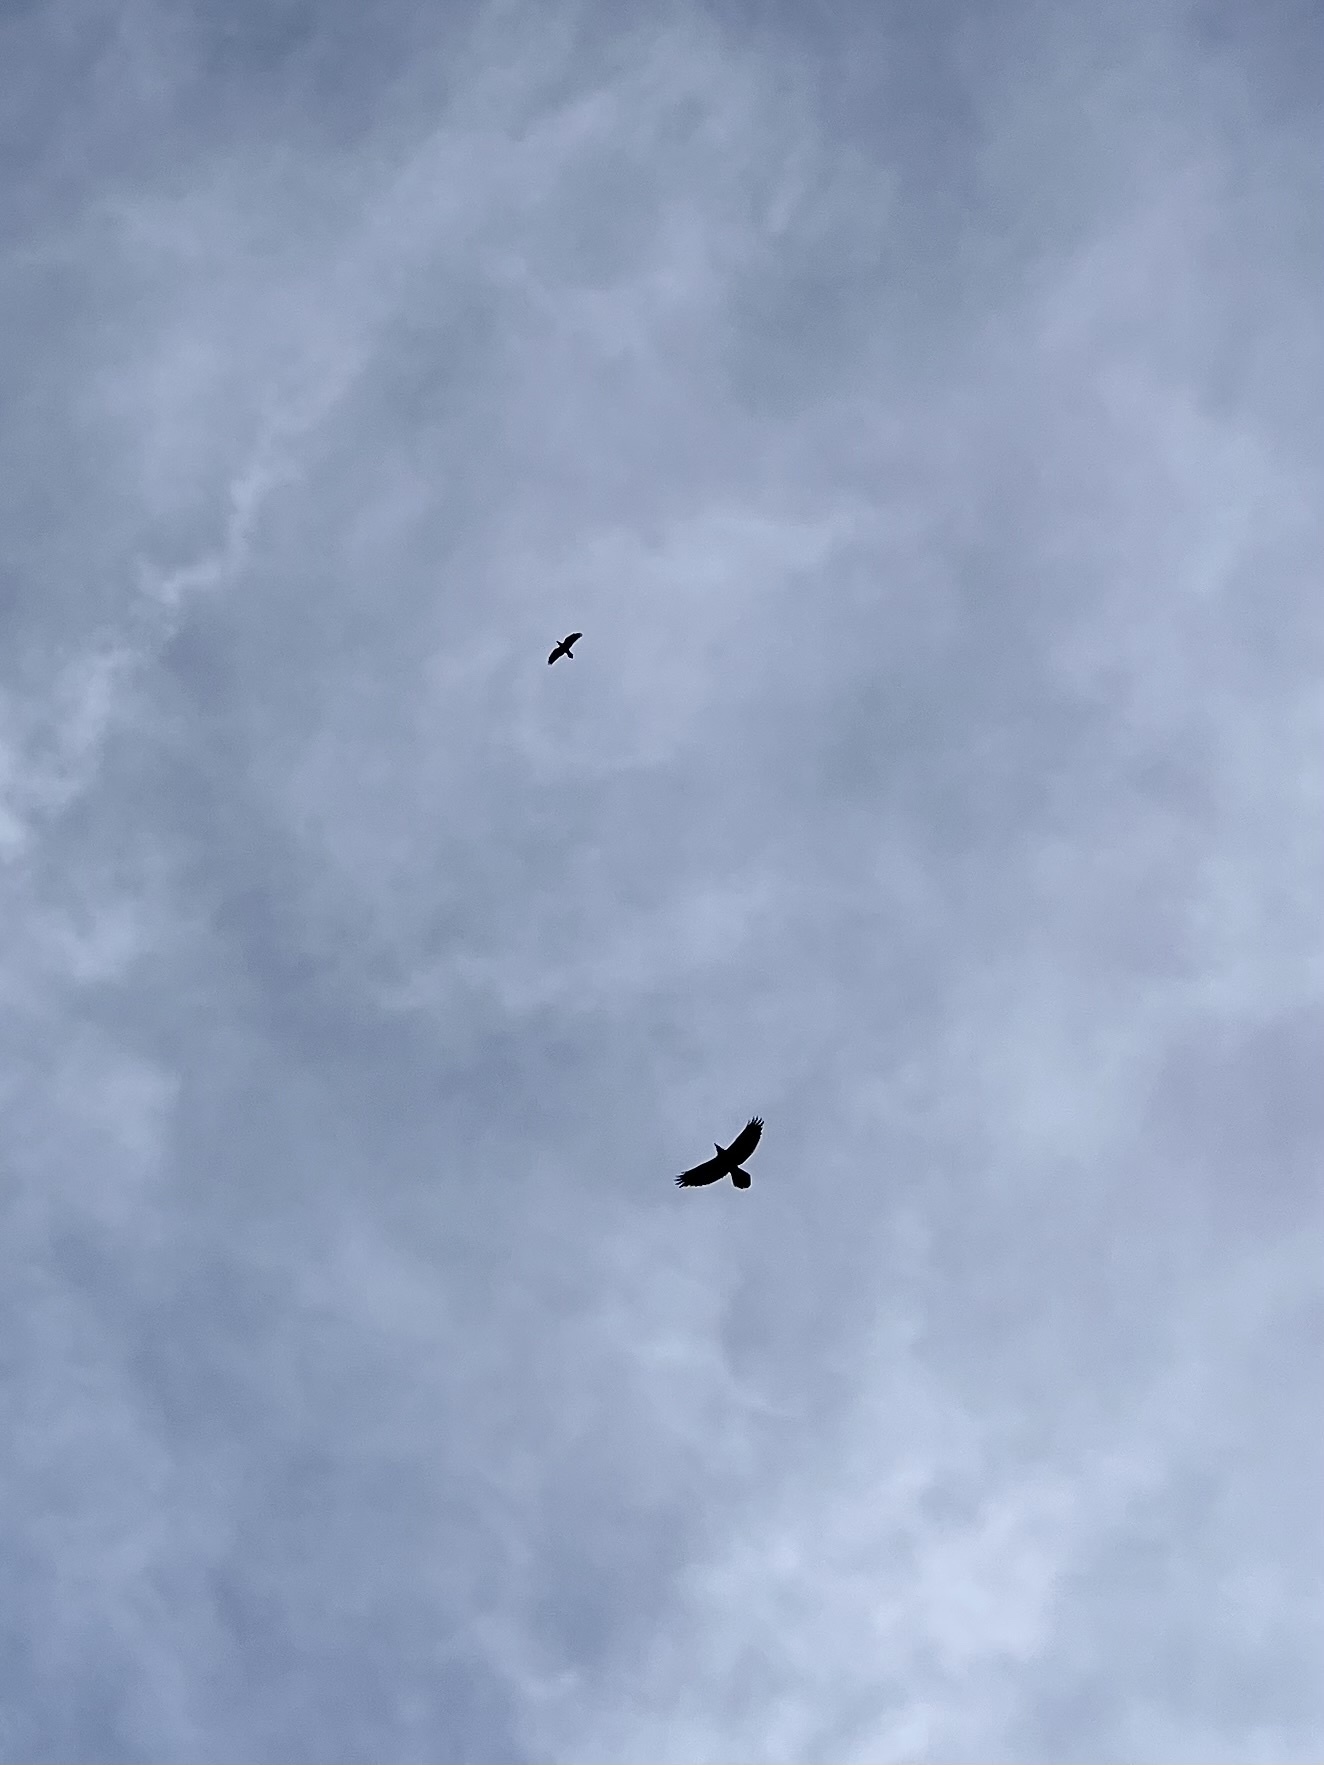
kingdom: Animalia
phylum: Chordata
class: Aves
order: Accipitriformes
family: Accipitridae
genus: Aquila
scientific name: Aquila chrysaetos
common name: Golden eagle
